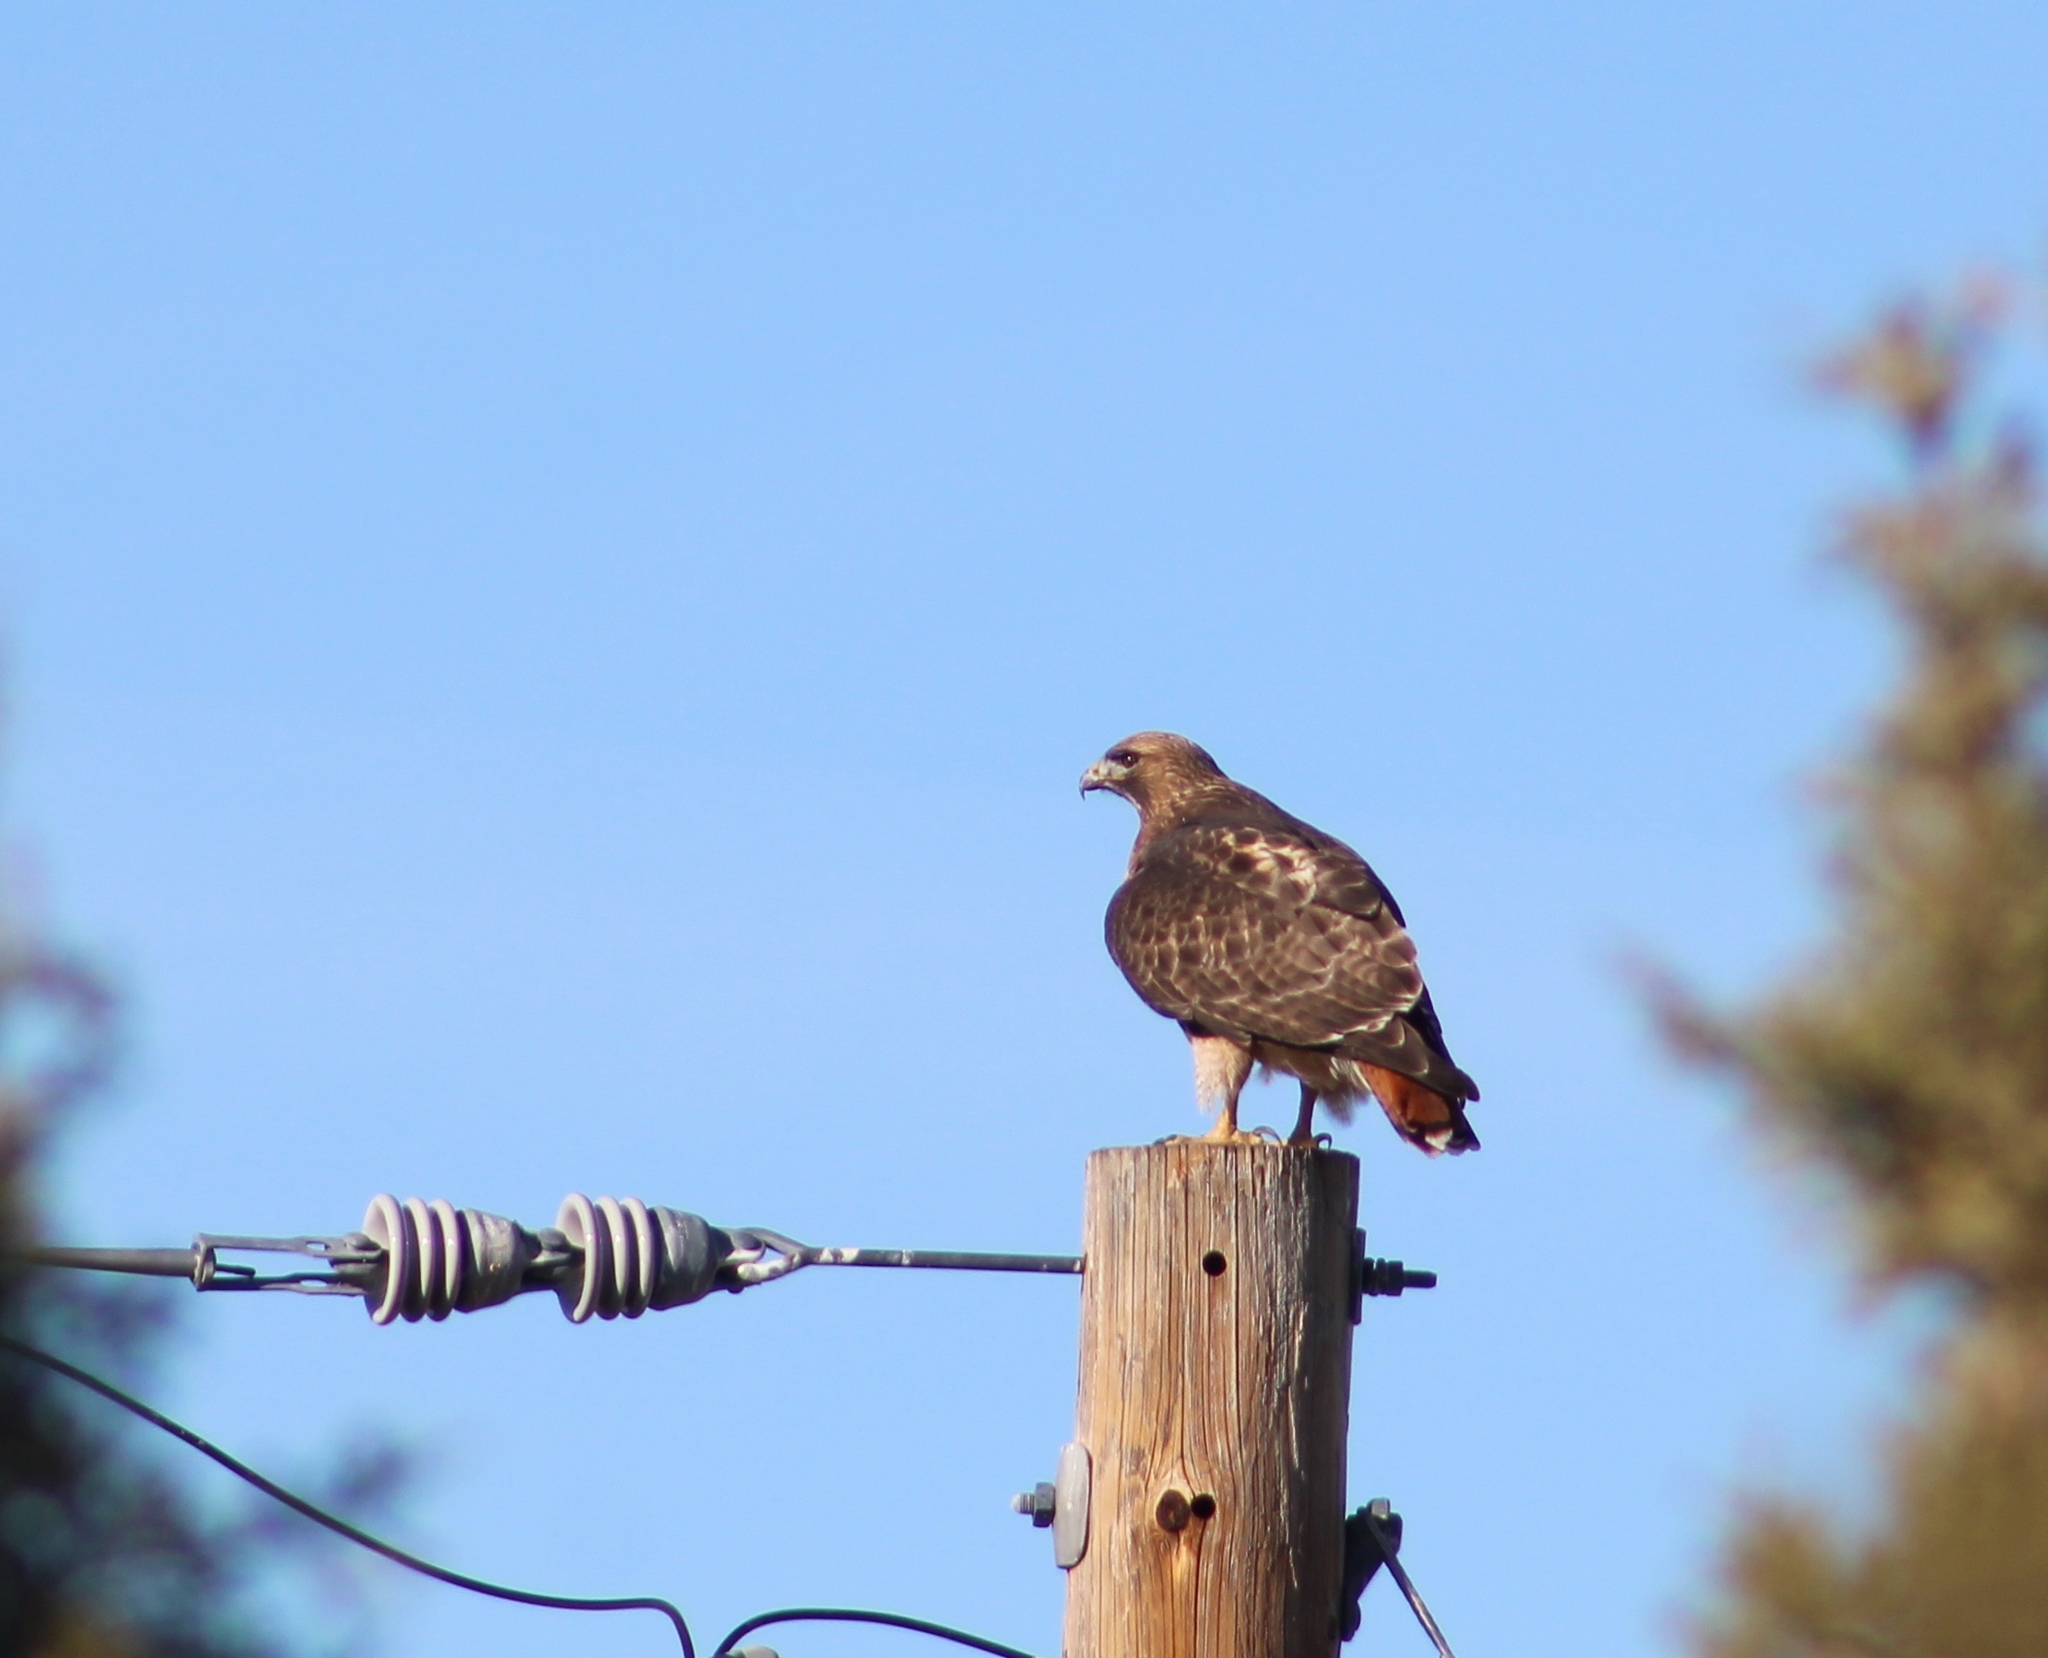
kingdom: Animalia
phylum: Chordata
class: Aves
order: Accipitriformes
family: Accipitridae
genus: Buteo
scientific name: Buteo jamaicensis
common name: Red-tailed hawk
